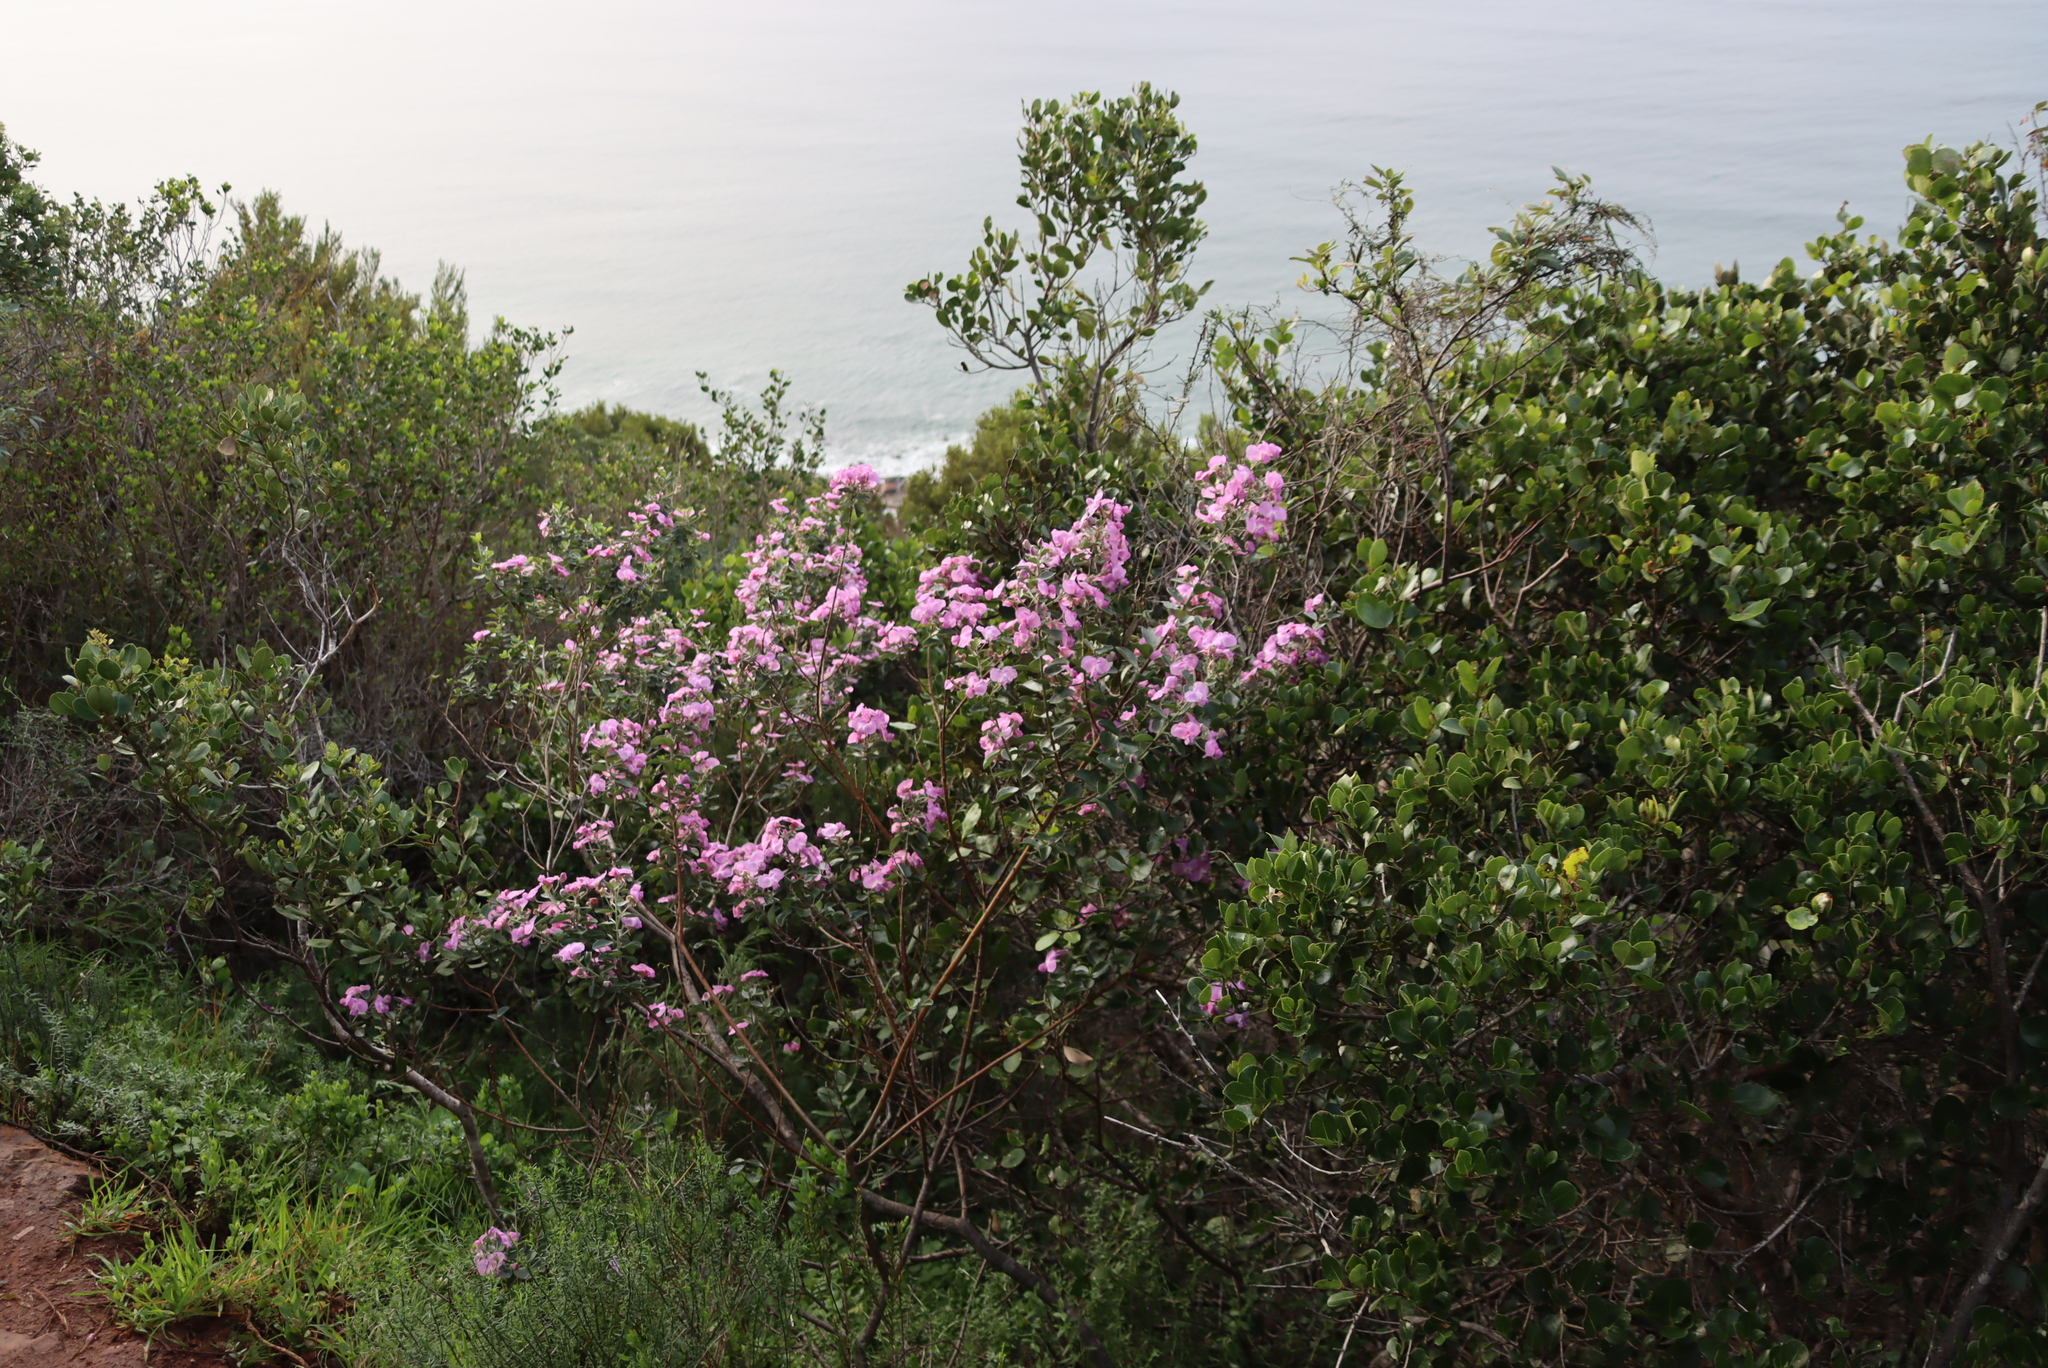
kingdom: Plantae
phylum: Tracheophyta
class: Magnoliopsida
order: Fabales
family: Fabaceae
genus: Podalyria
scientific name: Podalyria calyptrata
